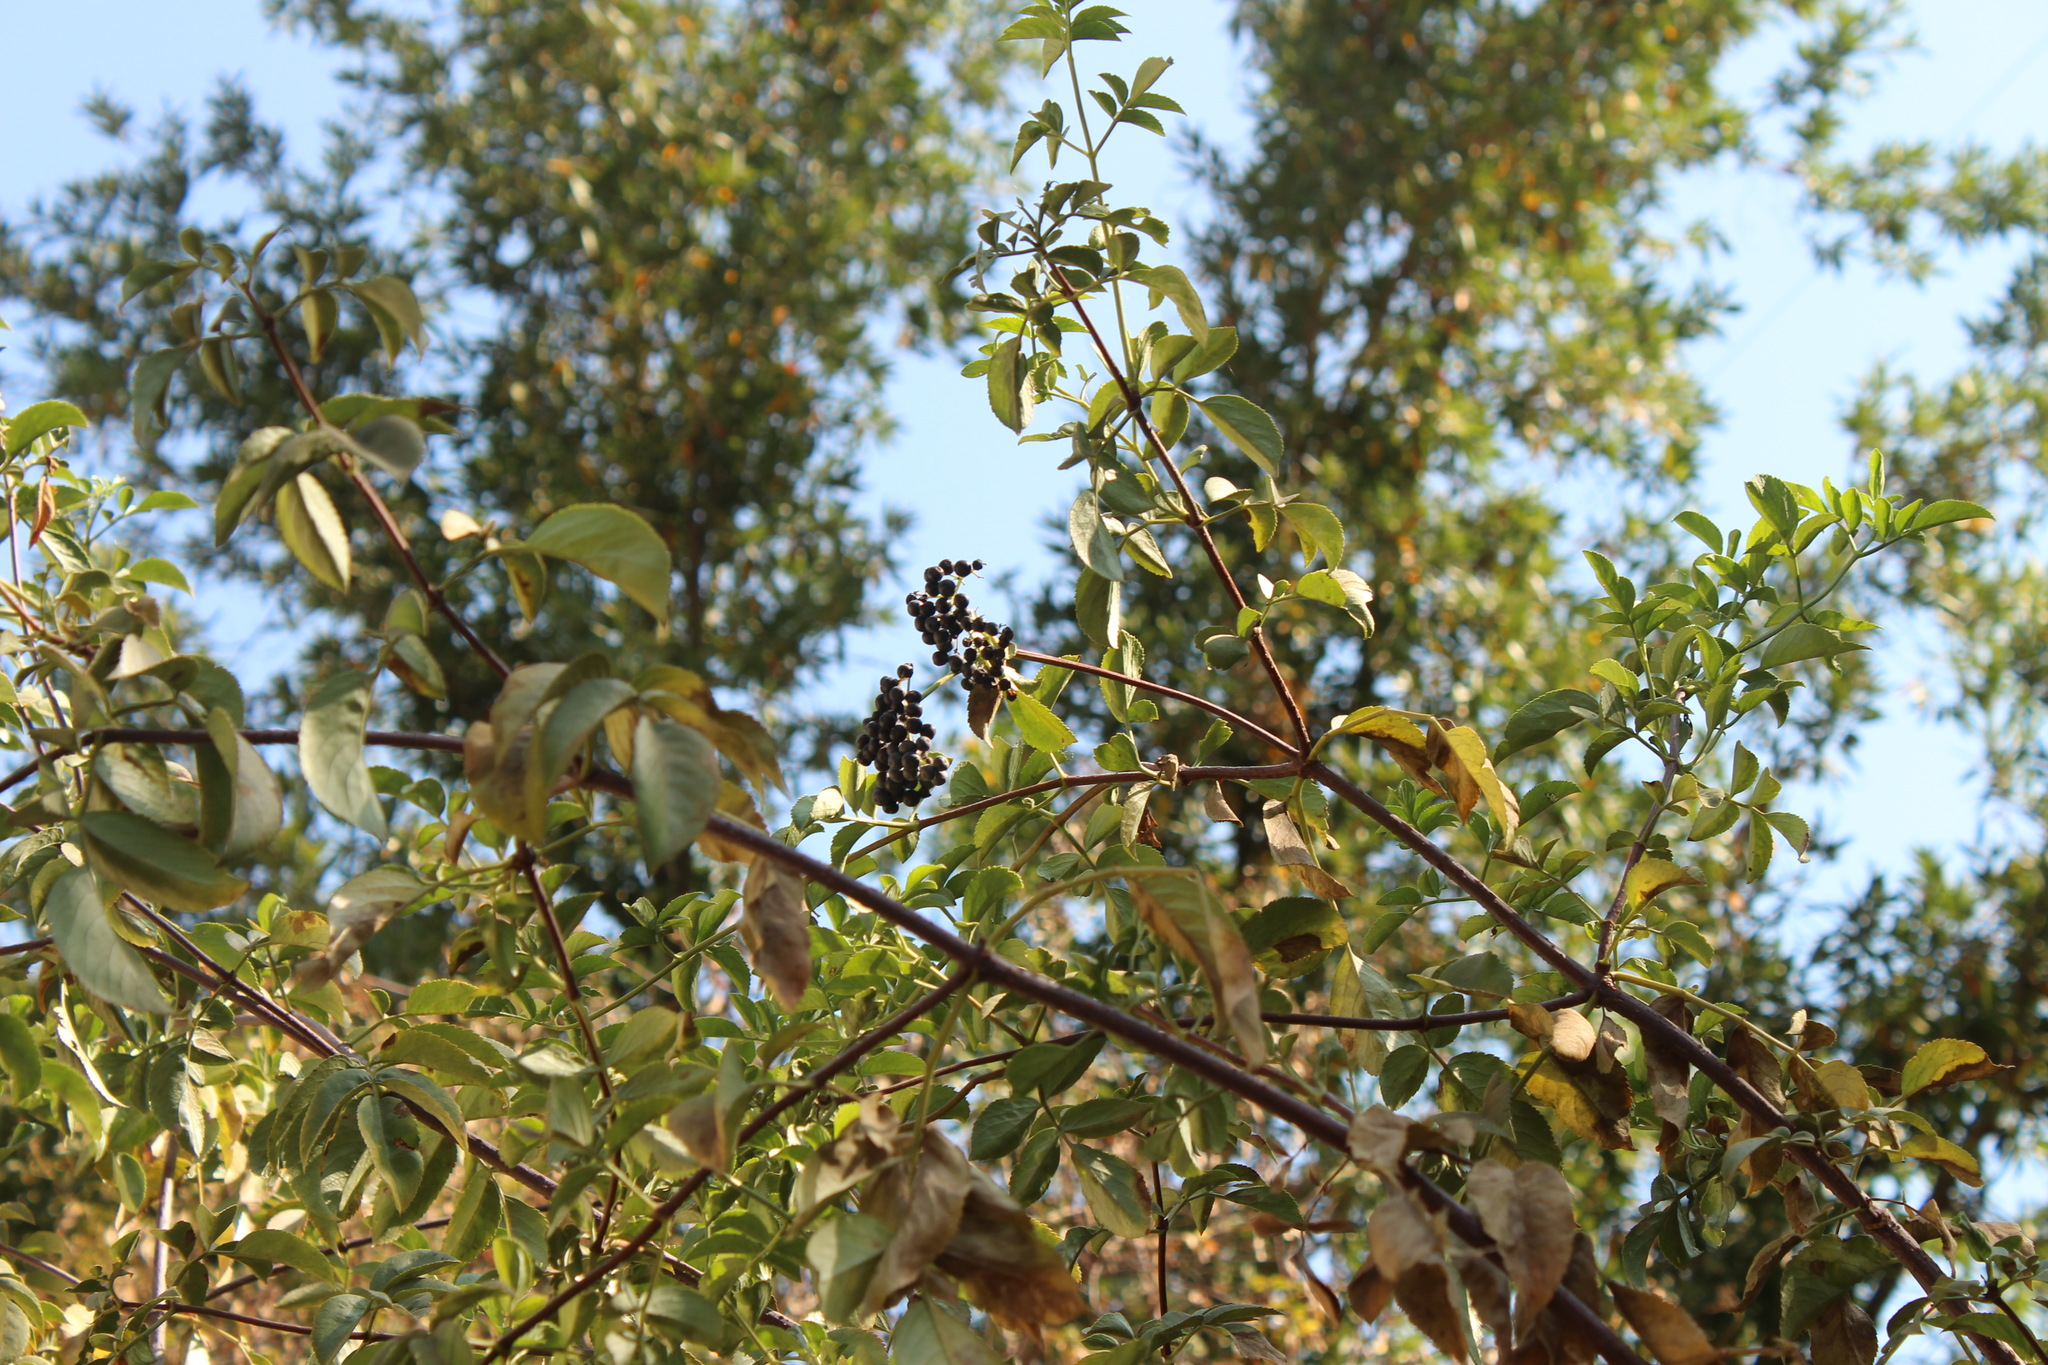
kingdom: Plantae
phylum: Tracheophyta
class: Magnoliopsida
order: Dipsacales
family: Viburnaceae
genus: Sambucus
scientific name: Sambucus cerulea
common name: Blue elder
